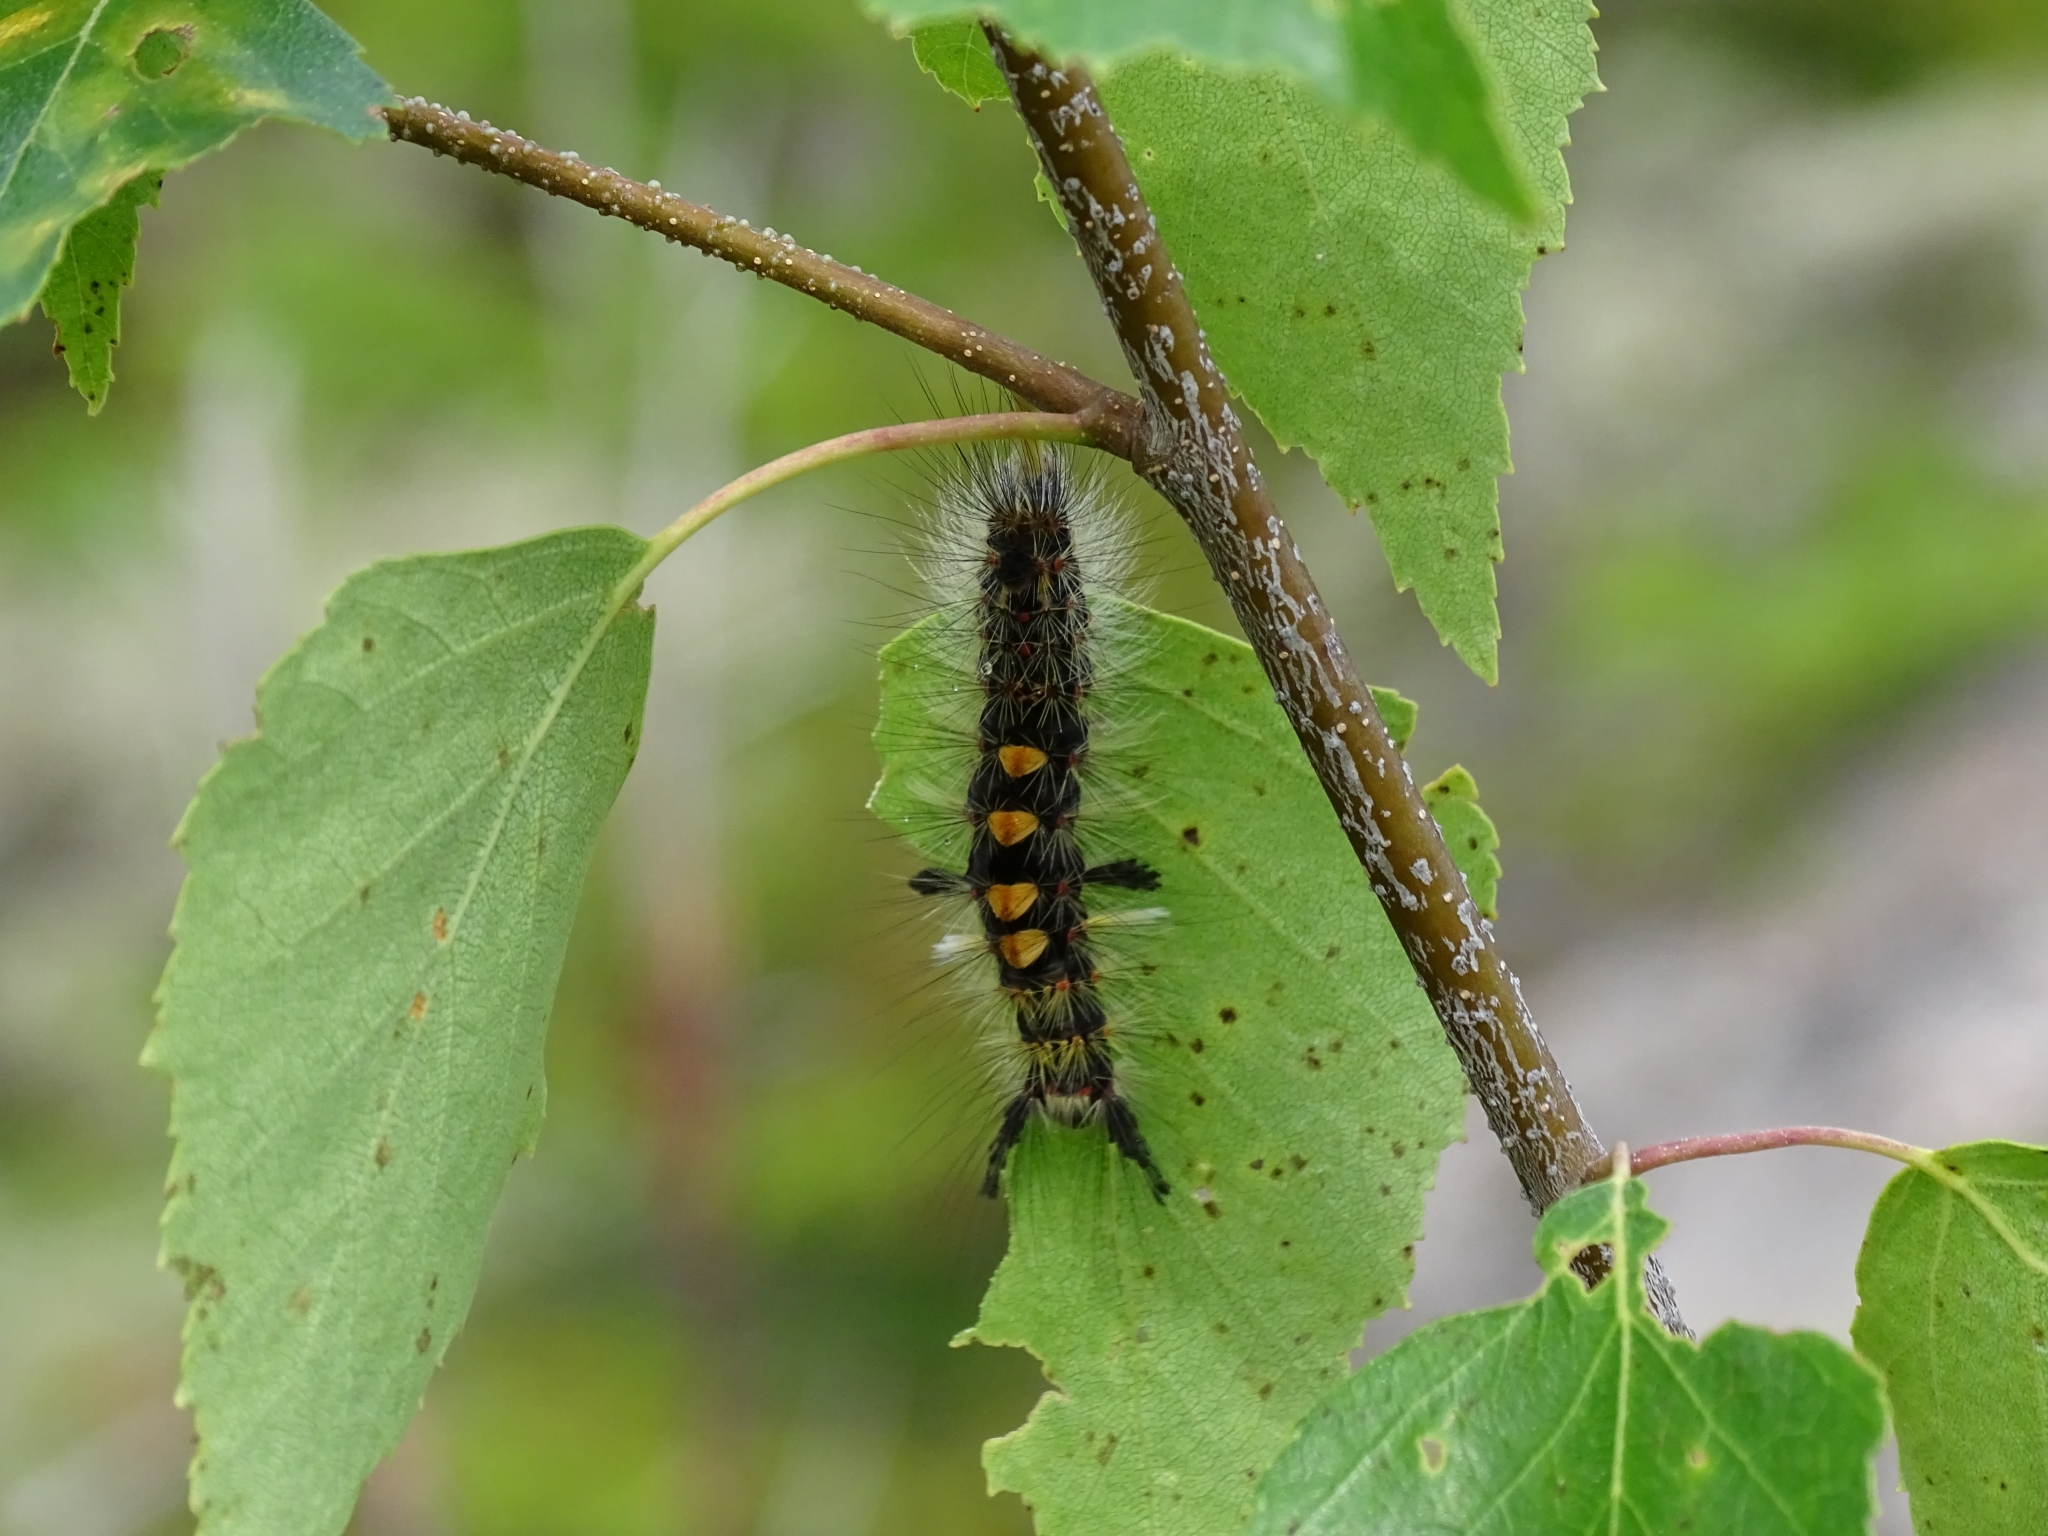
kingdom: Animalia
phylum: Arthropoda
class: Insecta
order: Lepidoptera
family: Erebidae
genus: Orgyia
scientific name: Orgyia antiqua
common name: Vapourer
